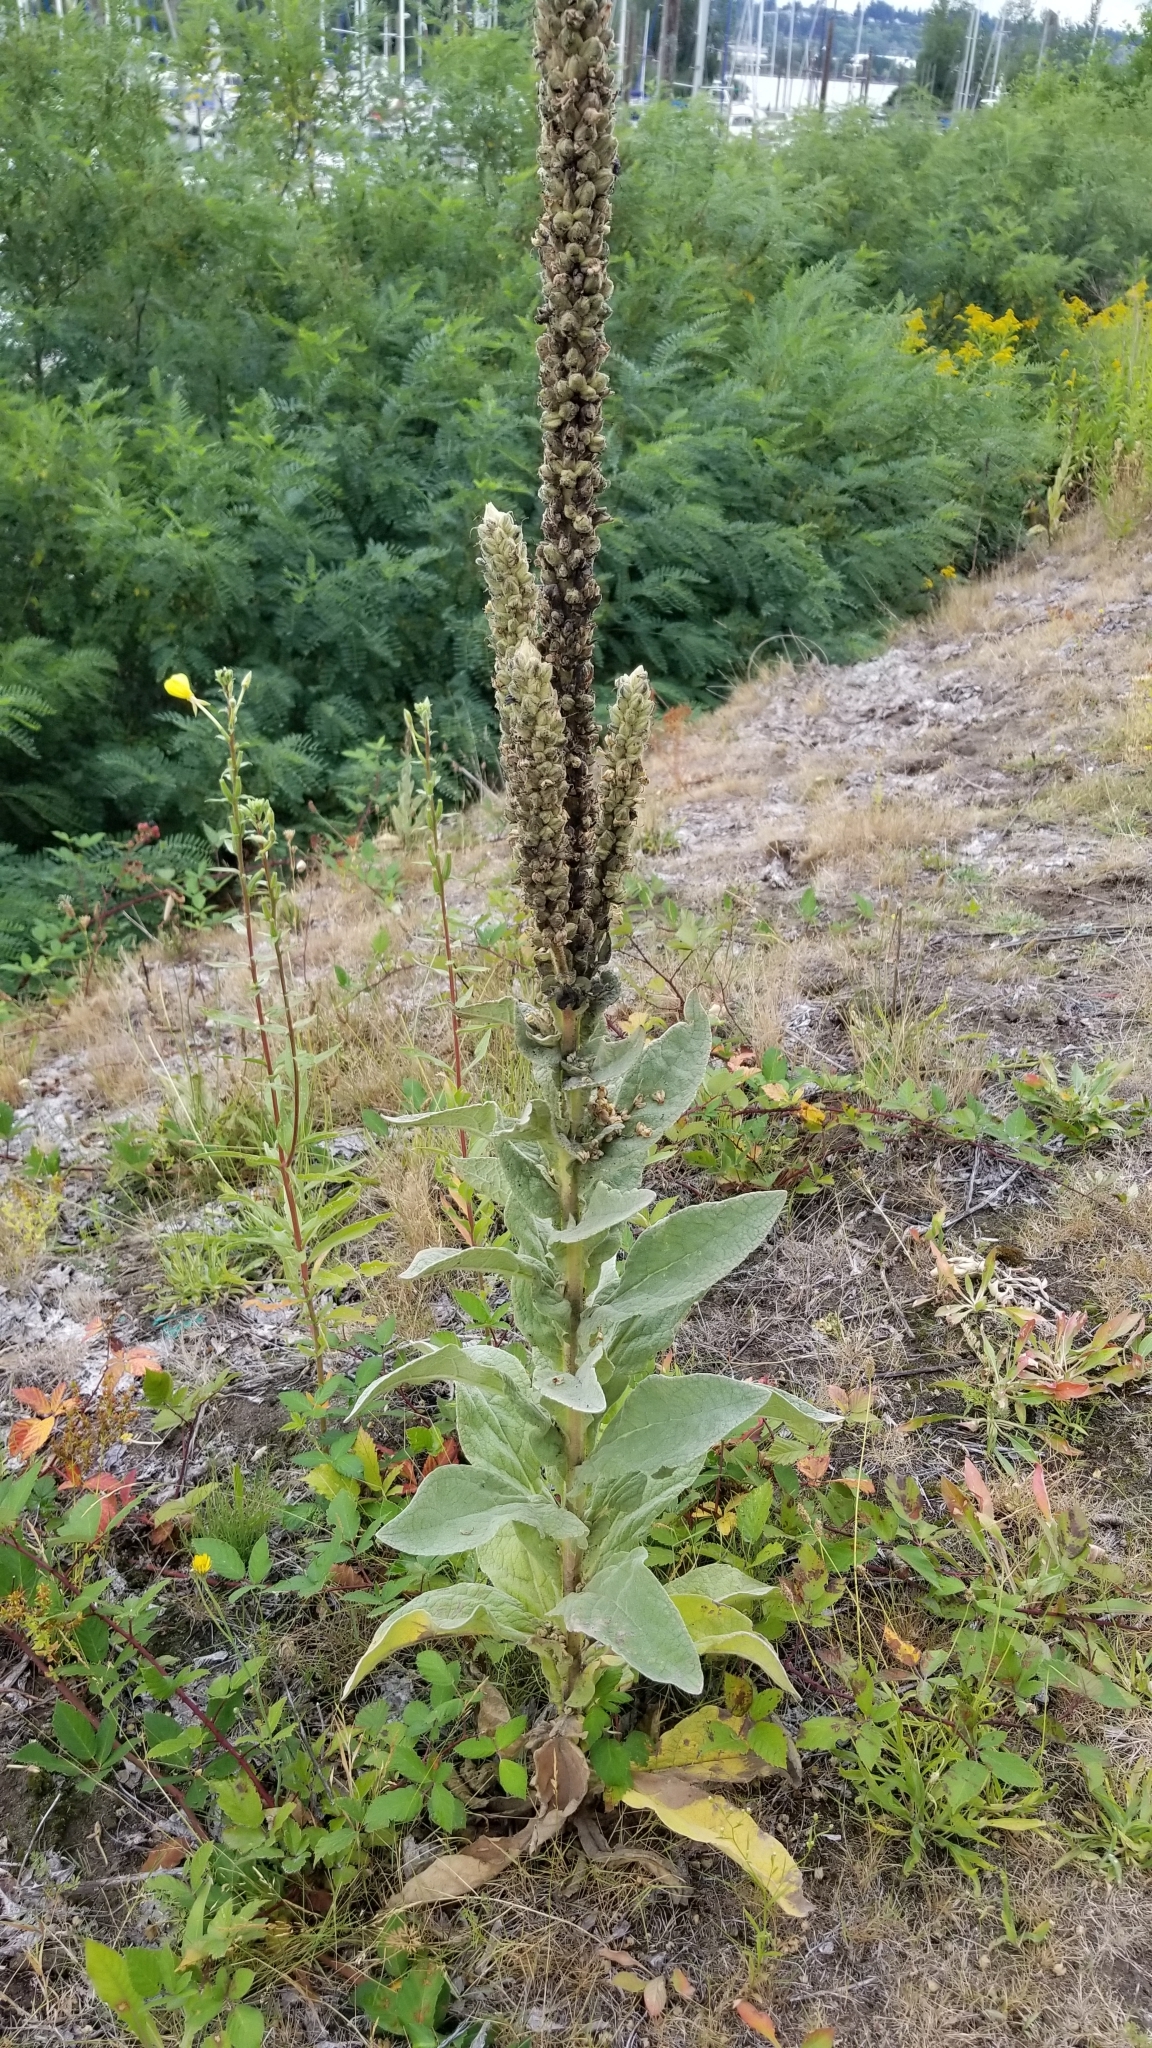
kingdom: Plantae
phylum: Tracheophyta
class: Magnoliopsida
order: Lamiales
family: Scrophulariaceae
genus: Verbascum
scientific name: Verbascum thapsus
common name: Common mullein
